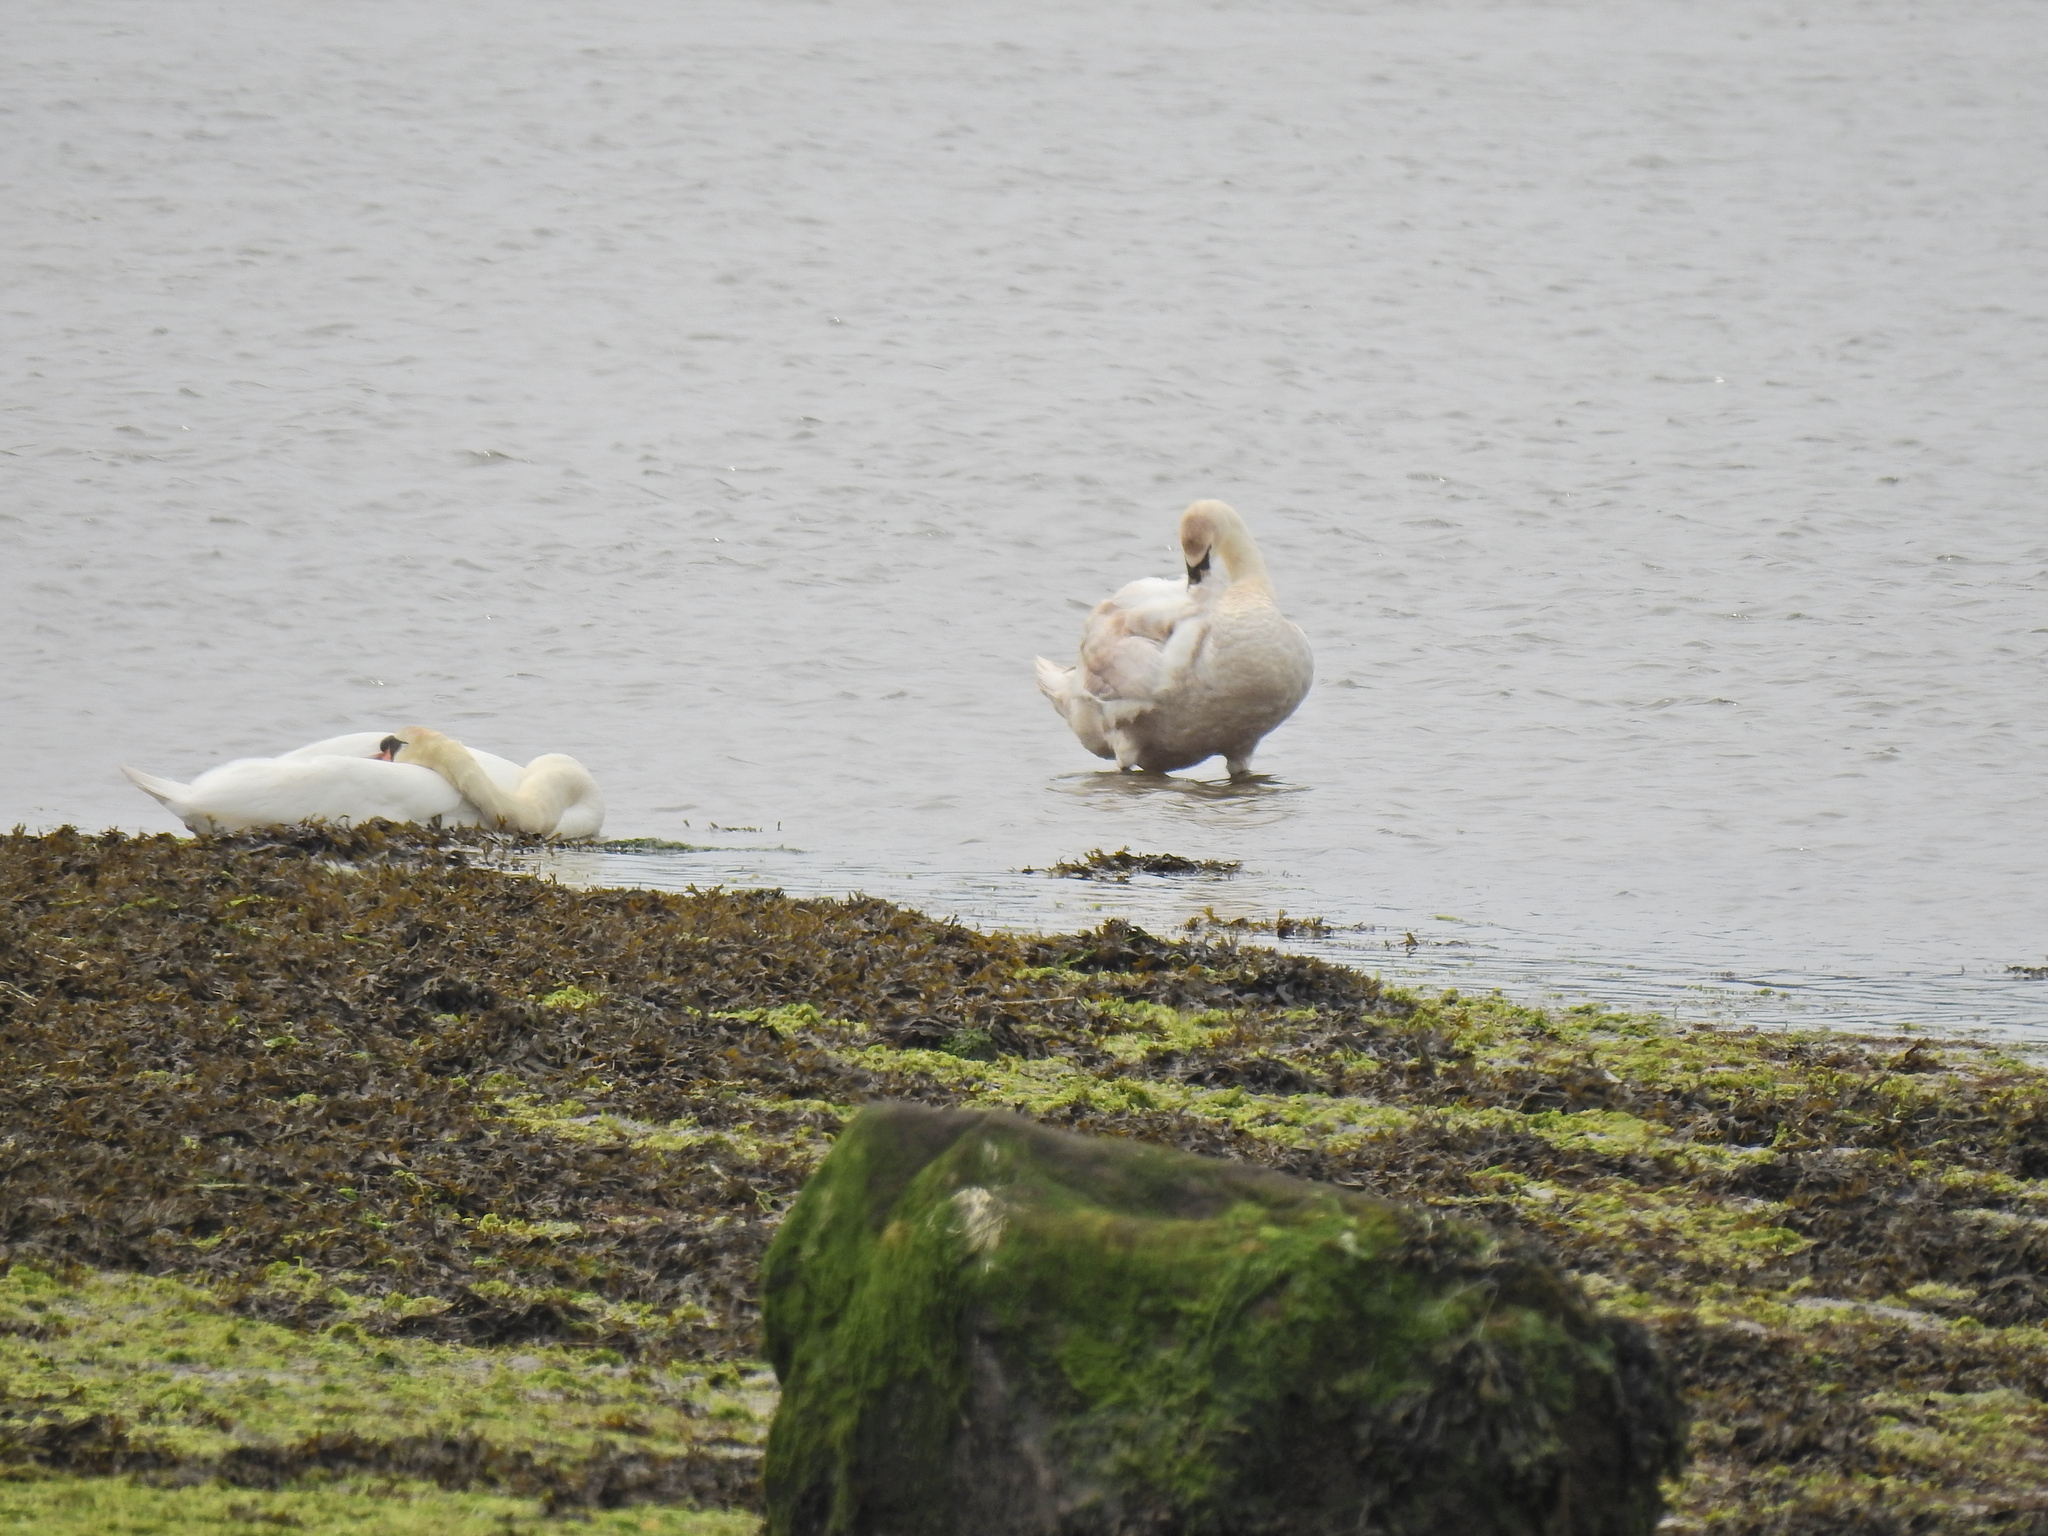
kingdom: Animalia
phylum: Chordata
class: Aves
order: Anseriformes
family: Anatidae
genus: Cygnus
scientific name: Cygnus olor
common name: Mute swan
